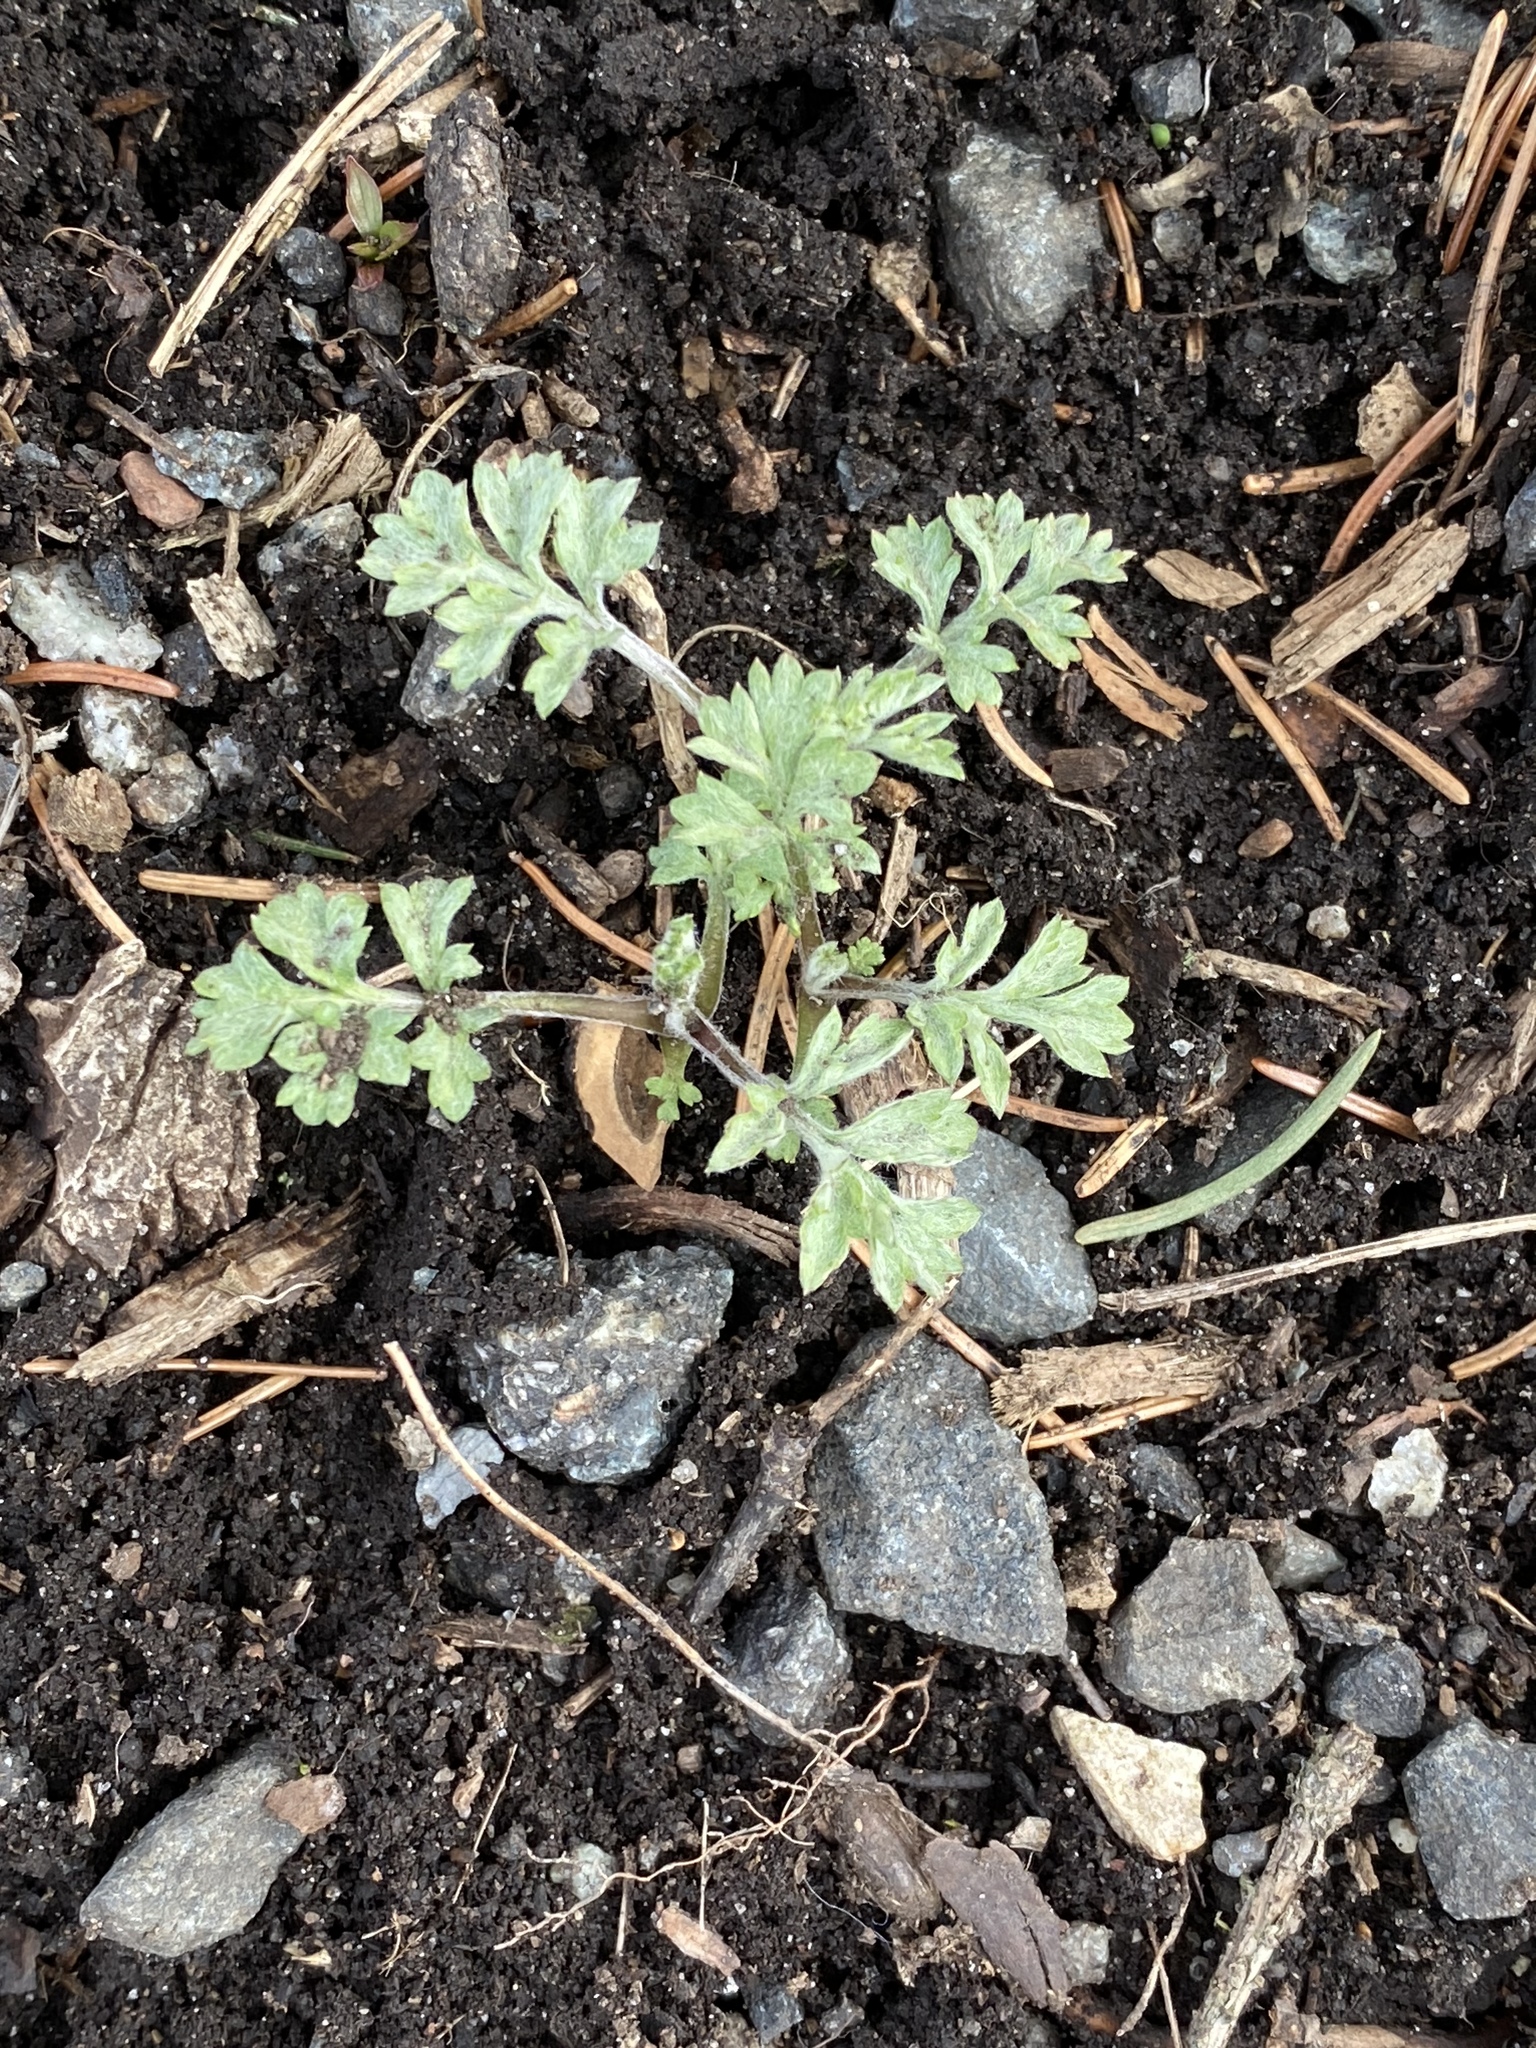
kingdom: Plantae
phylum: Tracheophyta
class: Magnoliopsida
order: Asterales
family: Asteraceae
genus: Artemisia
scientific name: Artemisia vulgaris
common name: Mugwort
